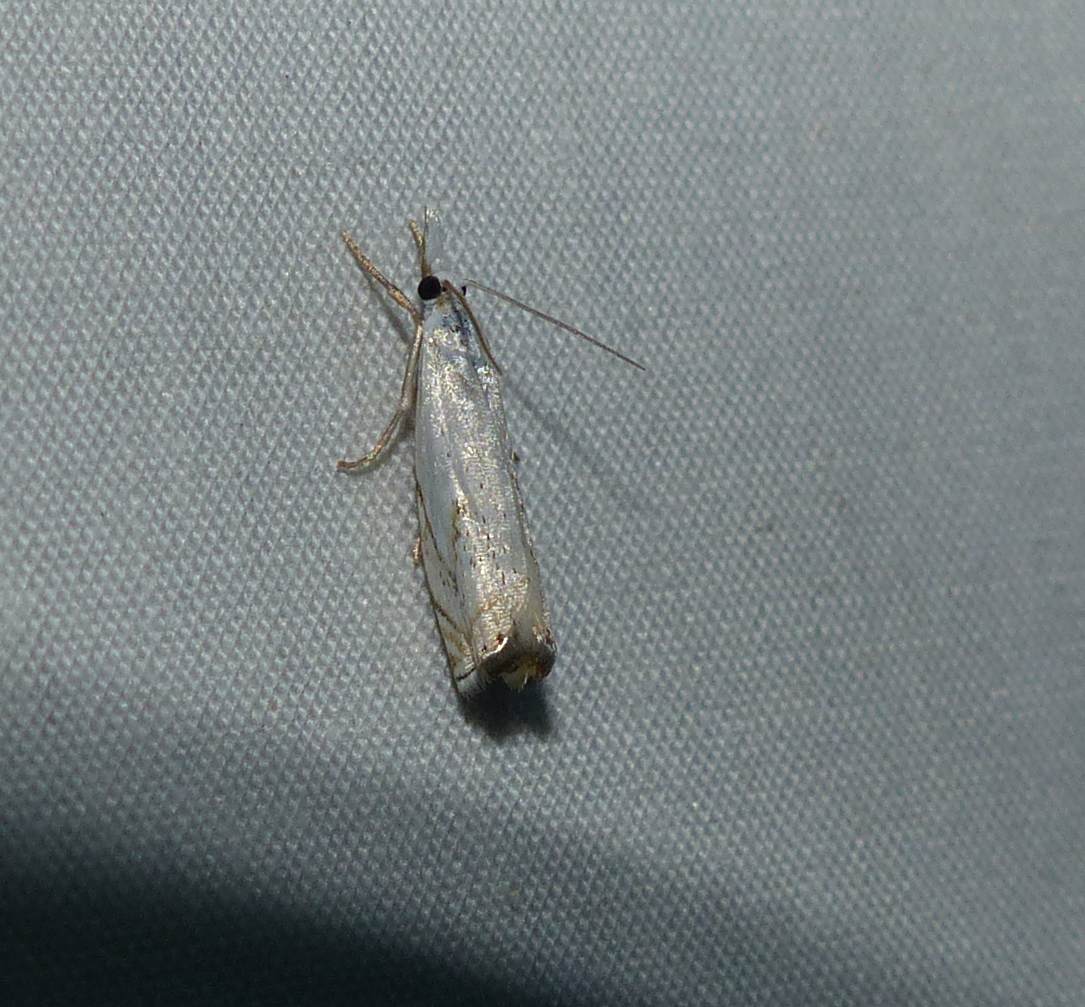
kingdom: Animalia
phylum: Arthropoda
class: Insecta
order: Lepidoptera
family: Crambidae
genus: Crambus
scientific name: Crambus albellus
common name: Small white grass-veneer
